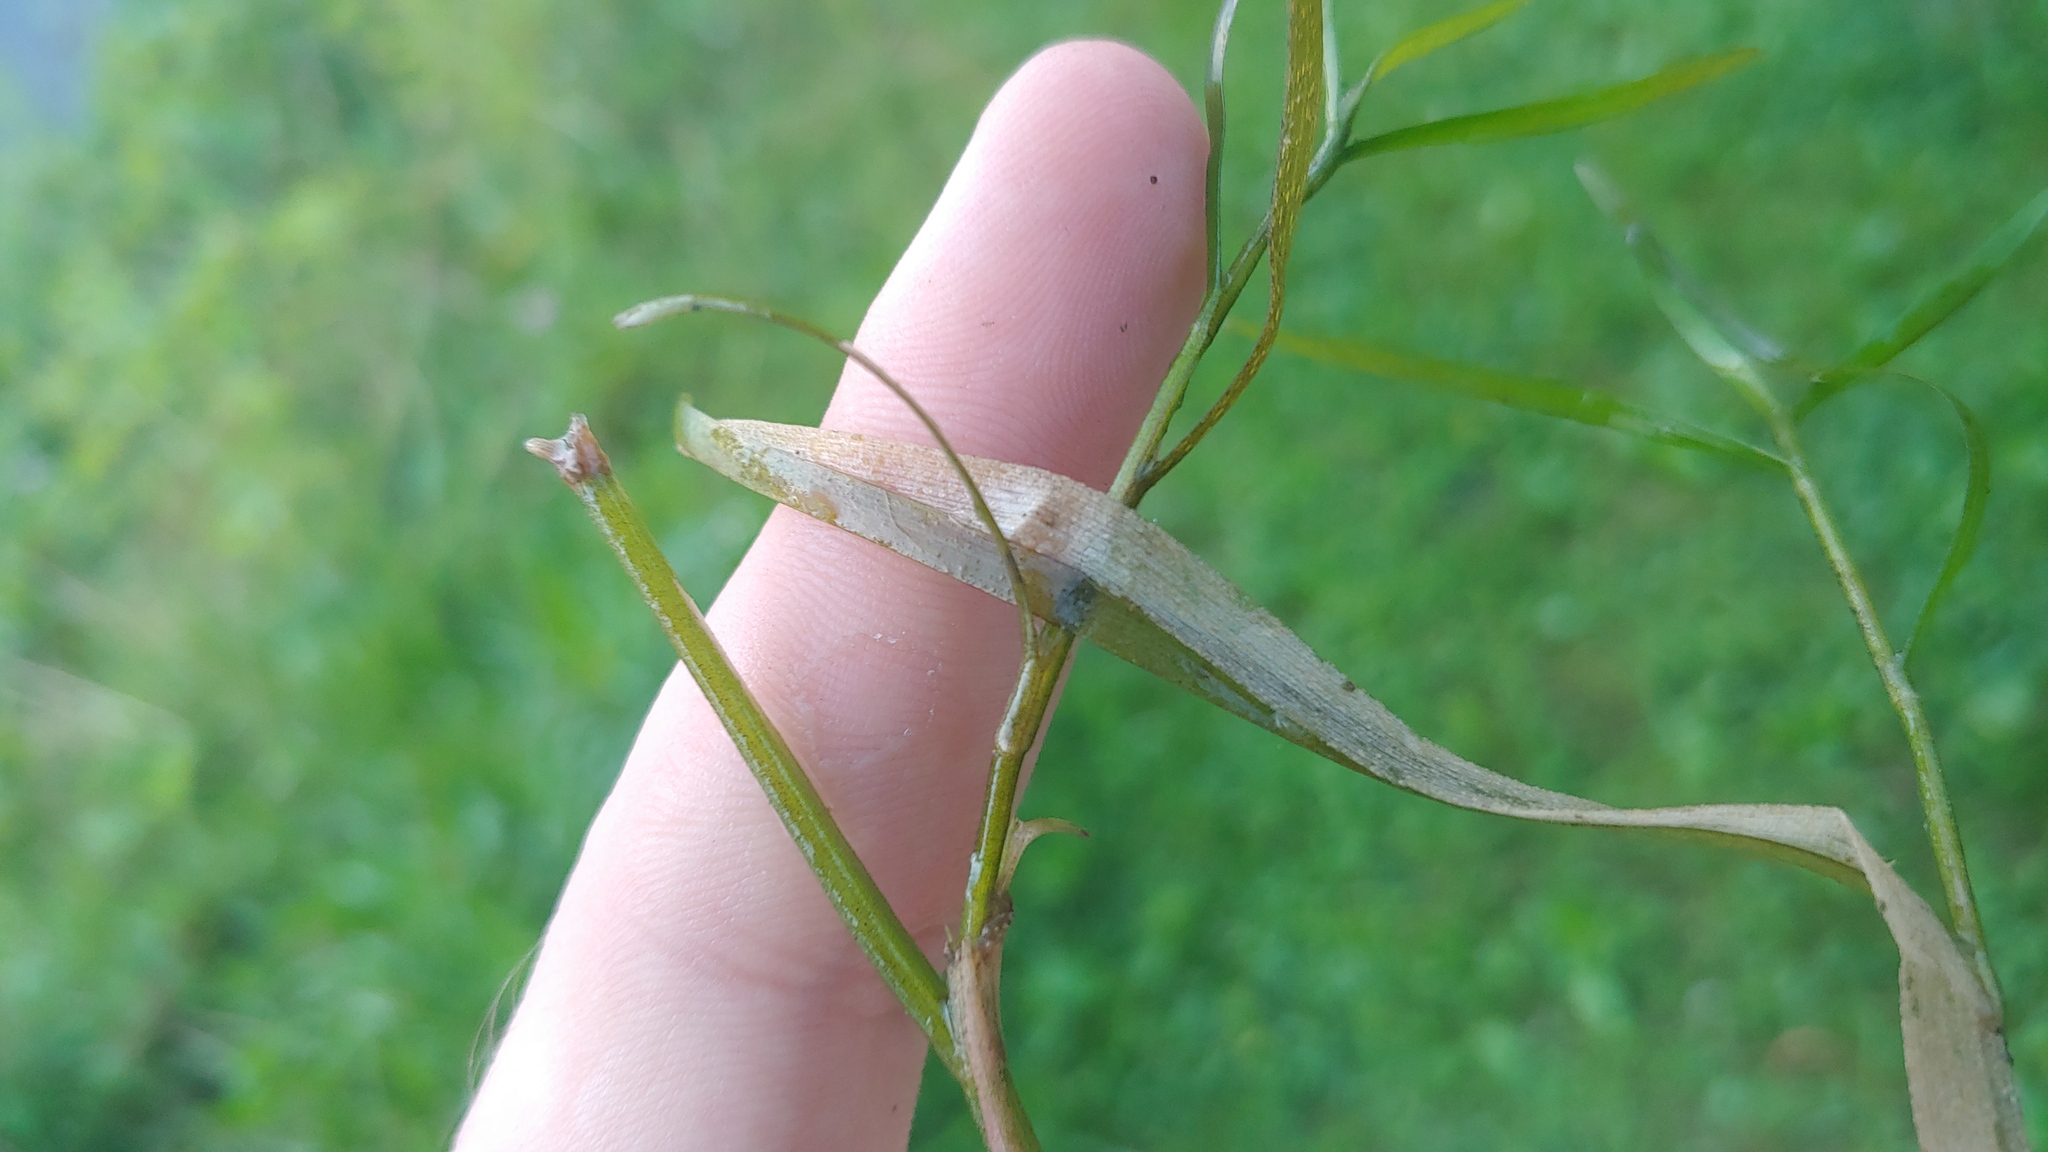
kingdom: Plantae
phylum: Tracheophyta
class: Liliopsida
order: Commelinales
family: Pontederiaceae
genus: Heteranthera
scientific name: Heteranthera dubia
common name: Grass-leaved mud plantain
